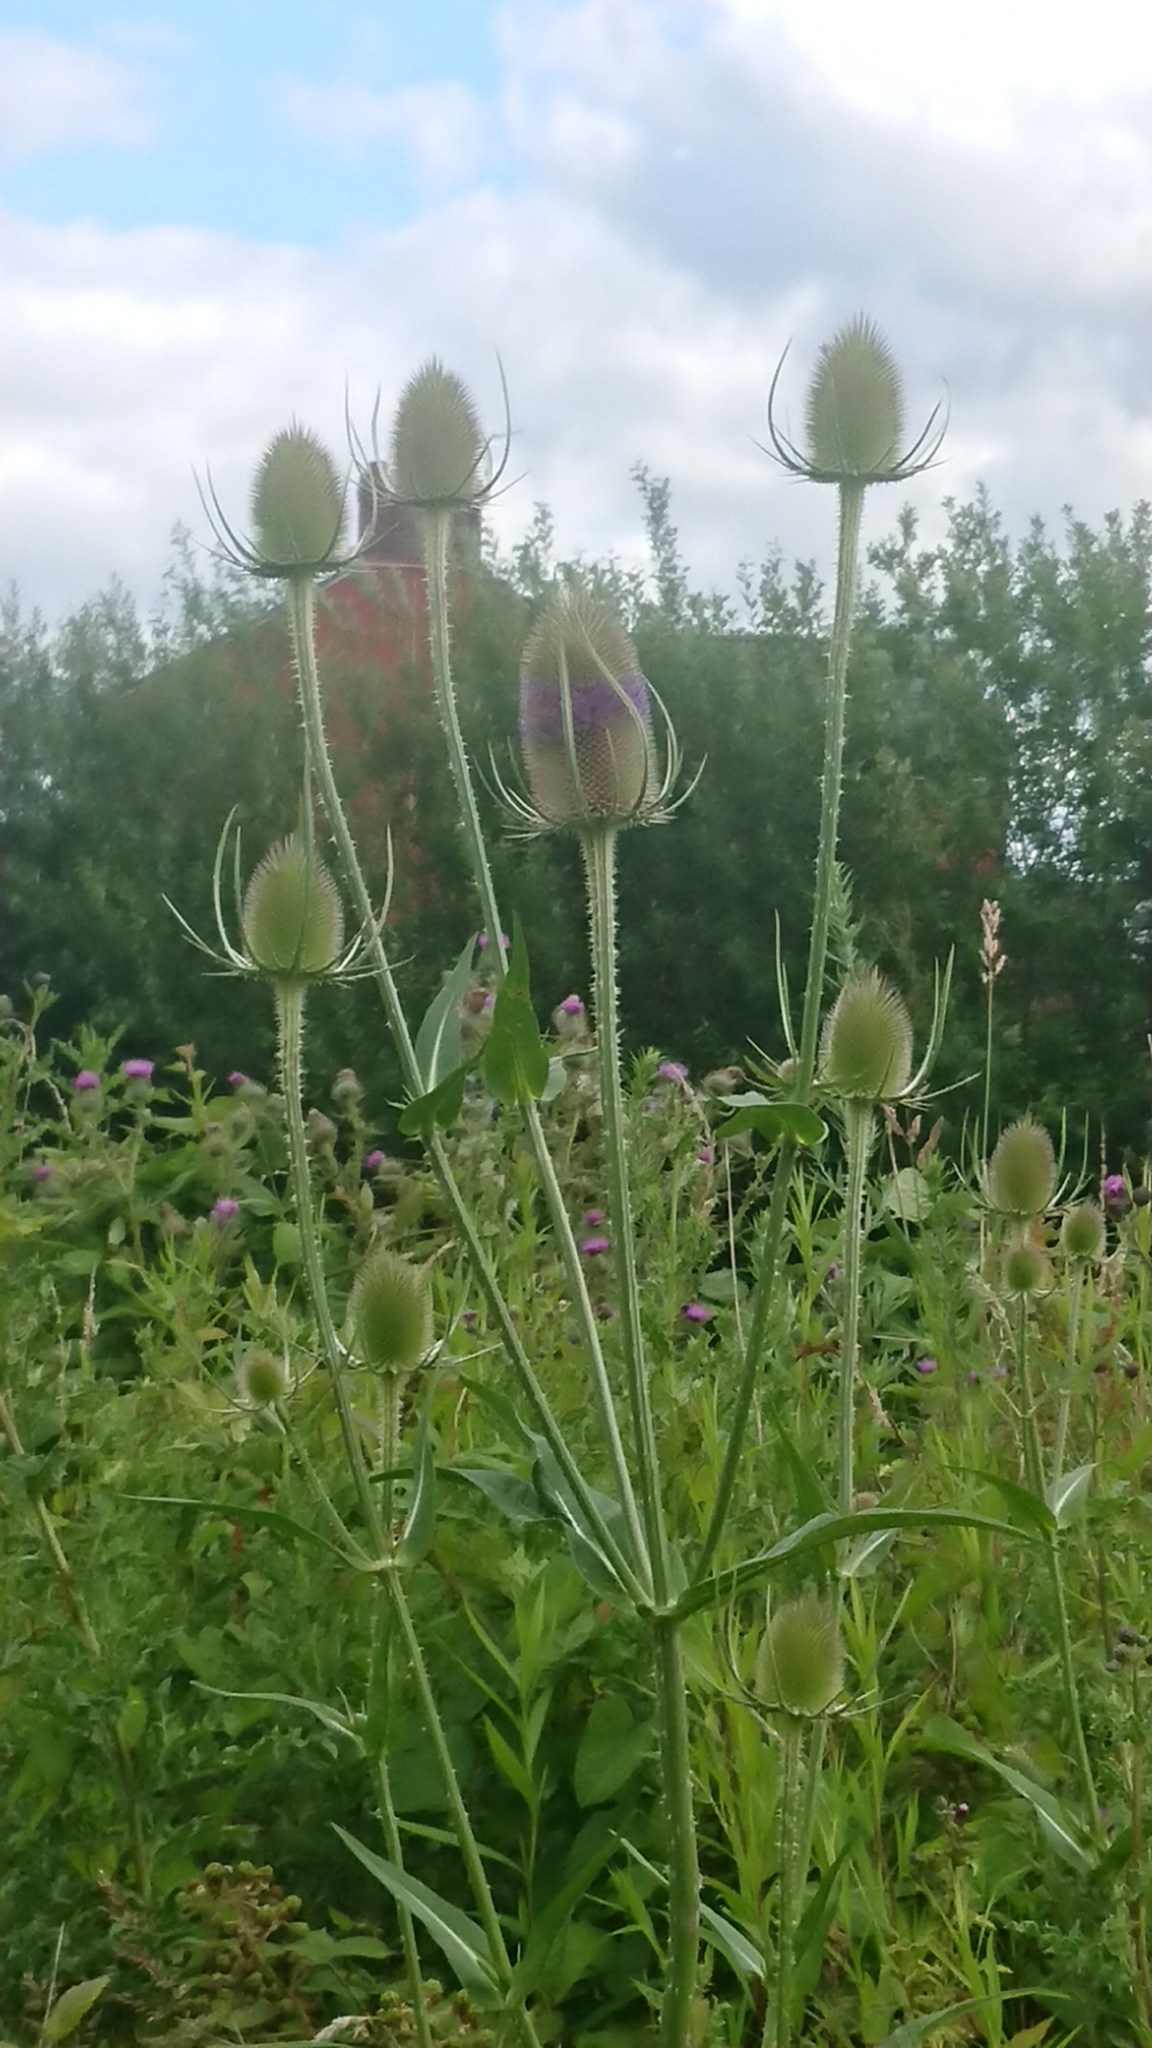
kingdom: Plantae
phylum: Tracheophyta
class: Magnoliopsida
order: Dipsacales
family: Caprifoliaceae
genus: Dipsacus
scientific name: Dipsacus fullonum
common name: Teasel
